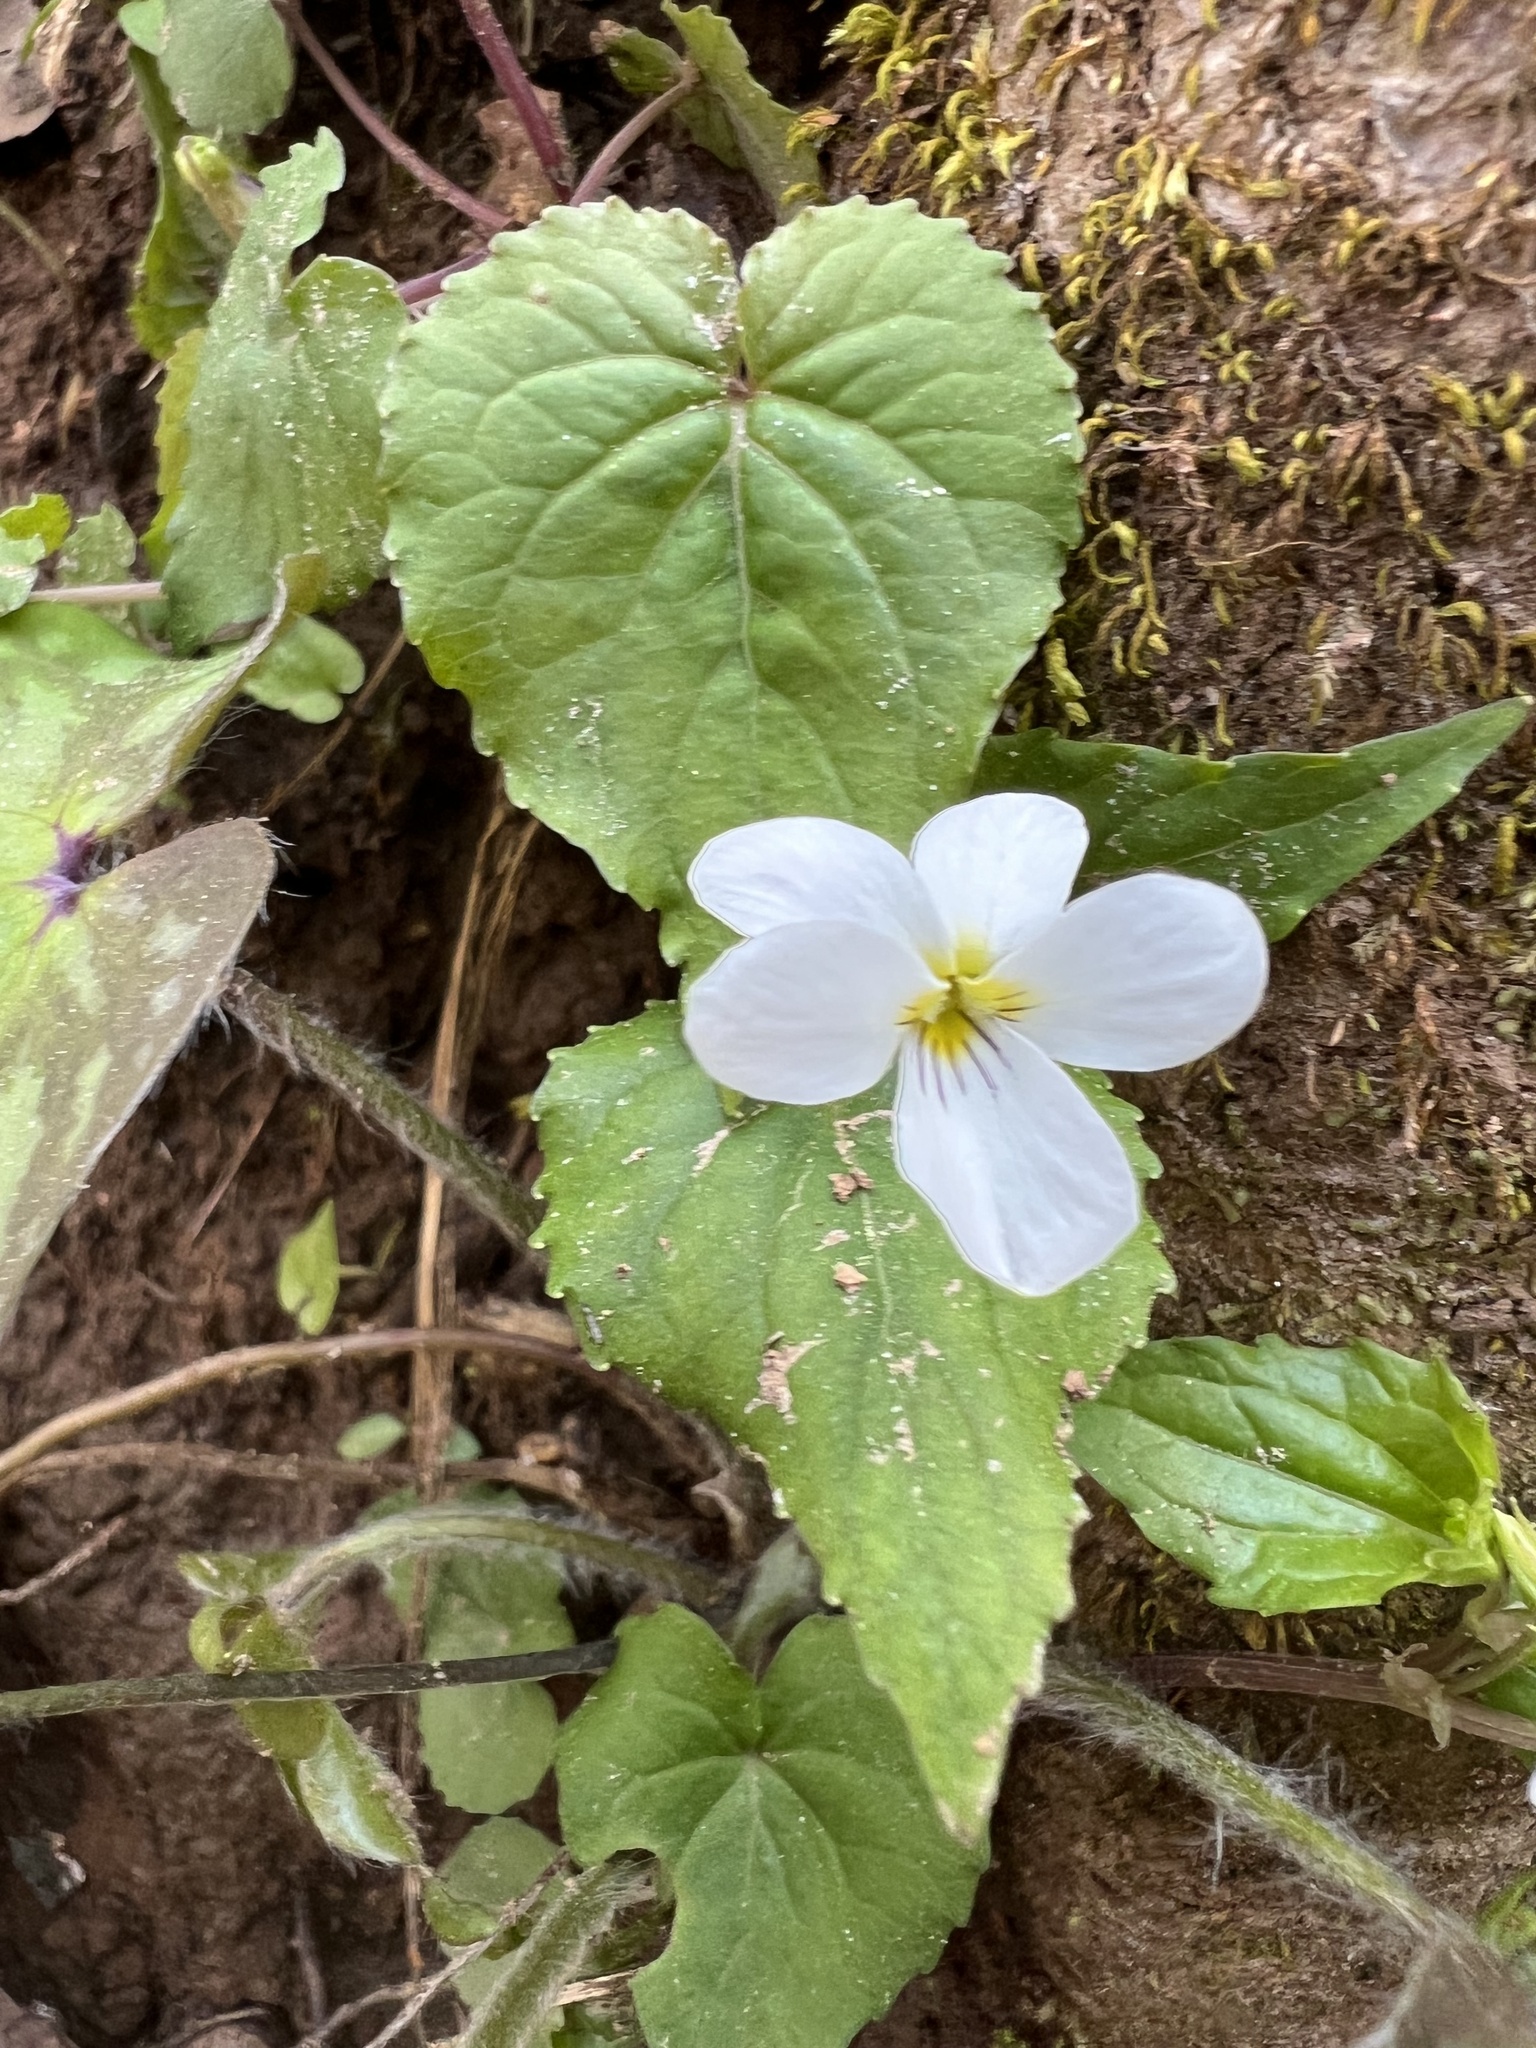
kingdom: Plantae
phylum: Tracheophyta
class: Magnoliopsida
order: Malpighiales
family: Violaceae
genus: Viola
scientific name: Viola canadensis
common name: Canada violet
